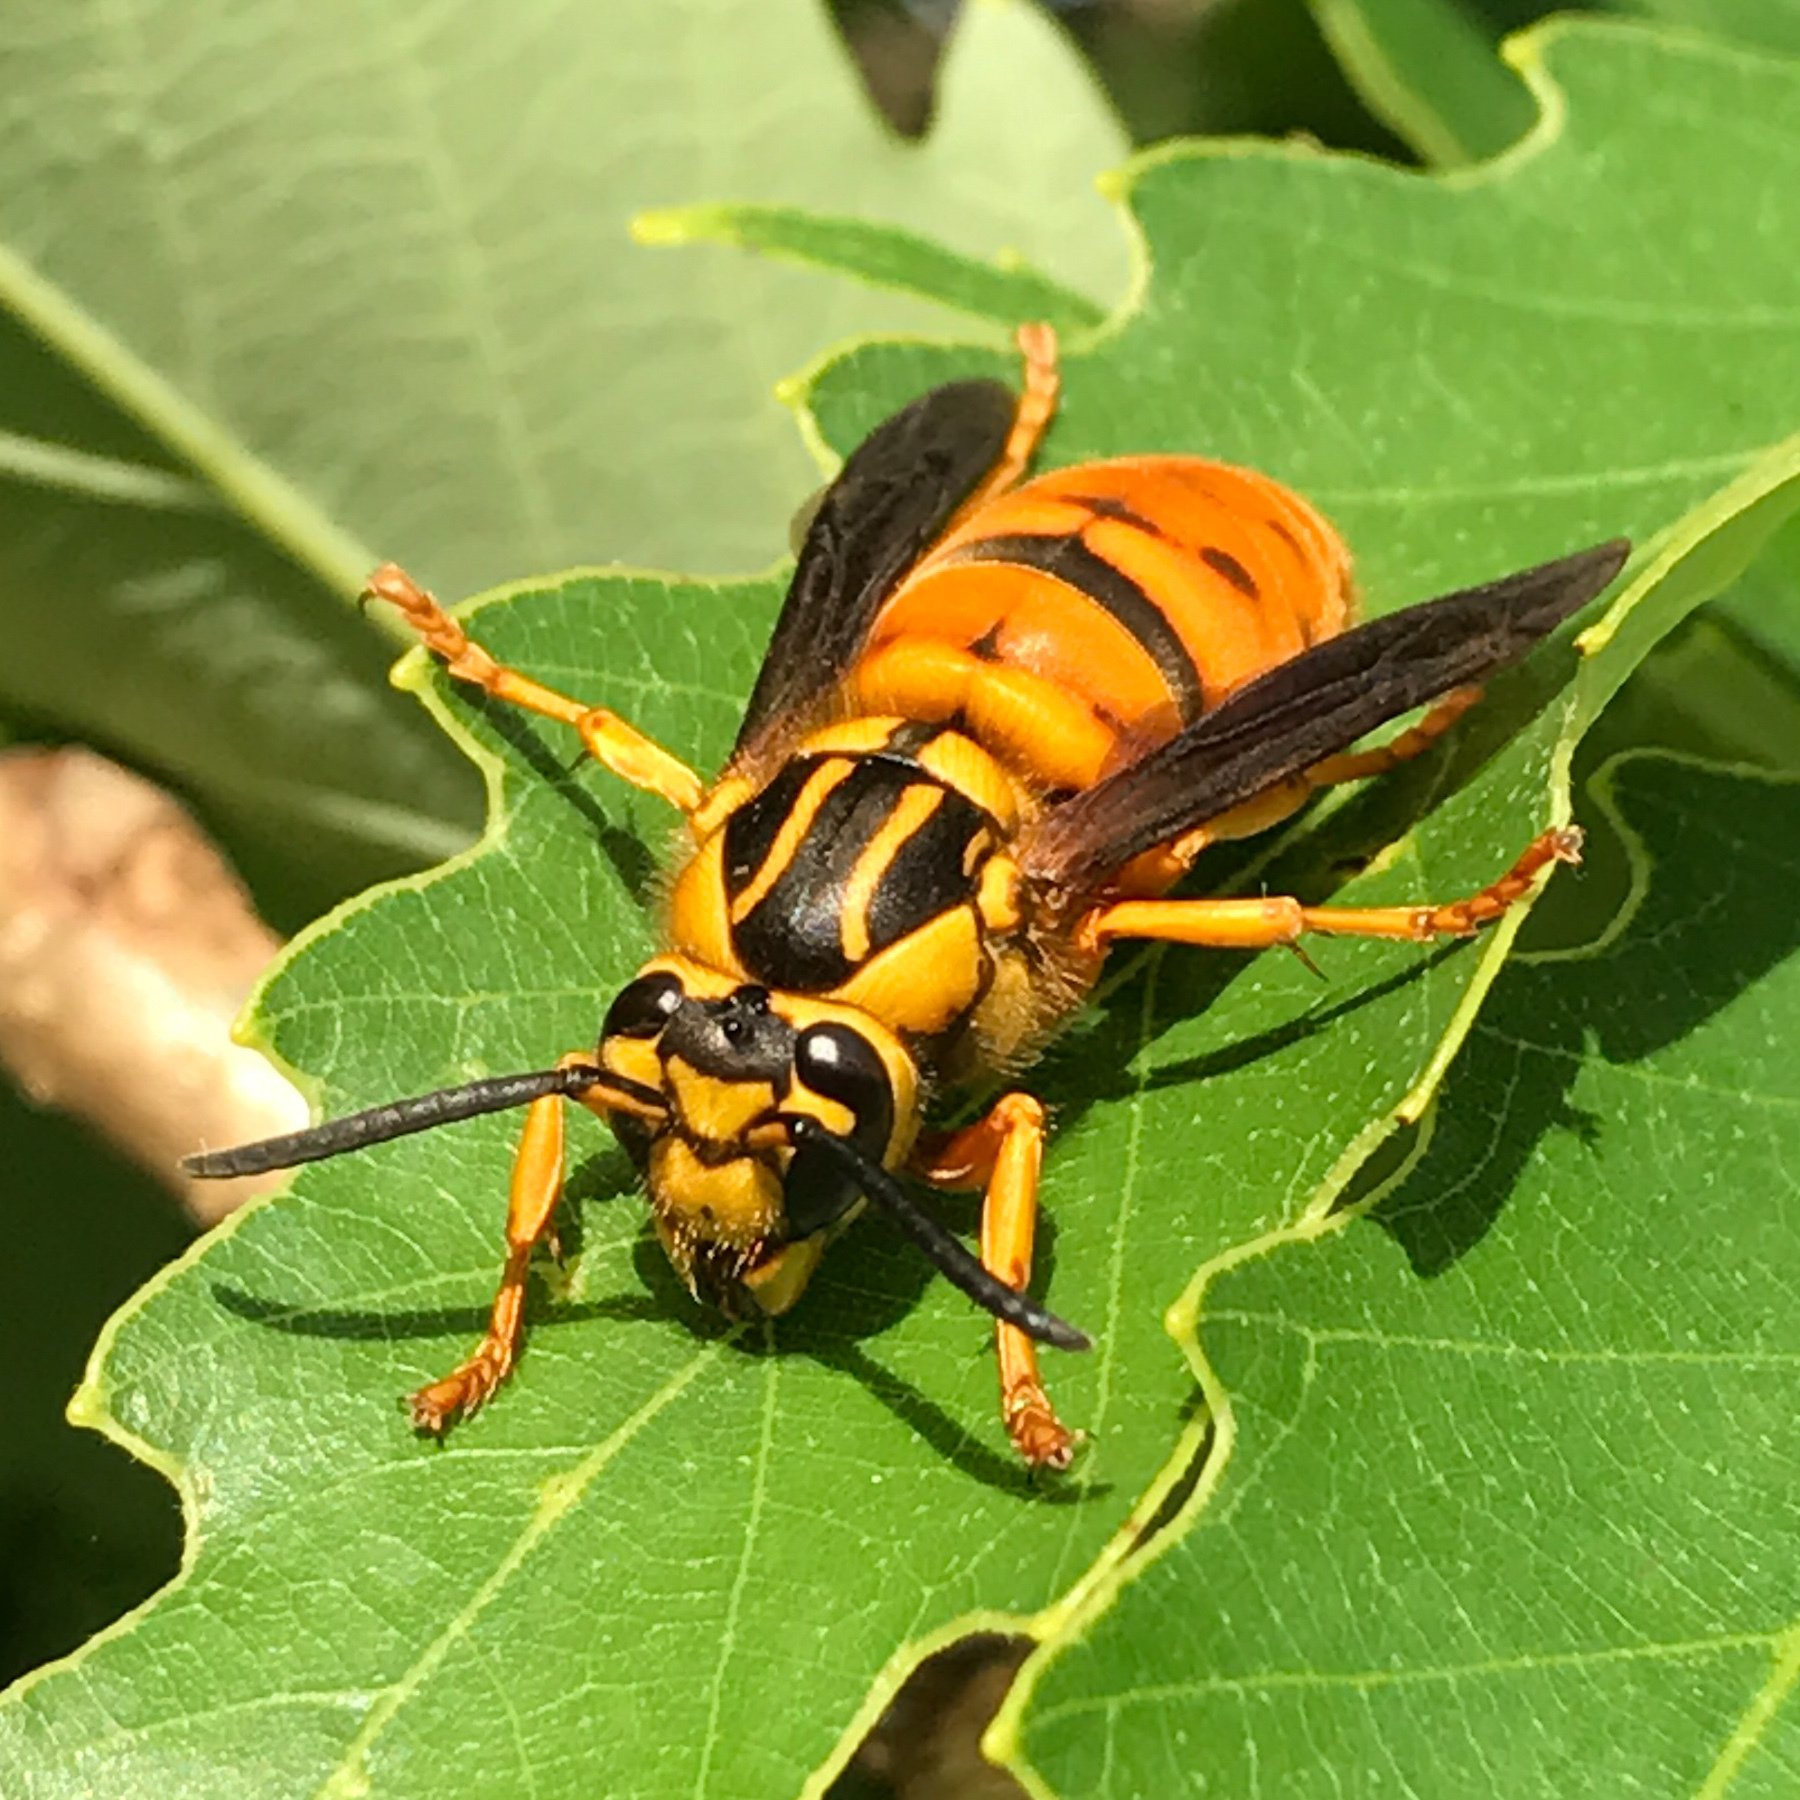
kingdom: Animalia
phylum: Arthropoda
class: Insecta
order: Hymenoptera
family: Vespidae
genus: Vespula
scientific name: Vespula squamosa
